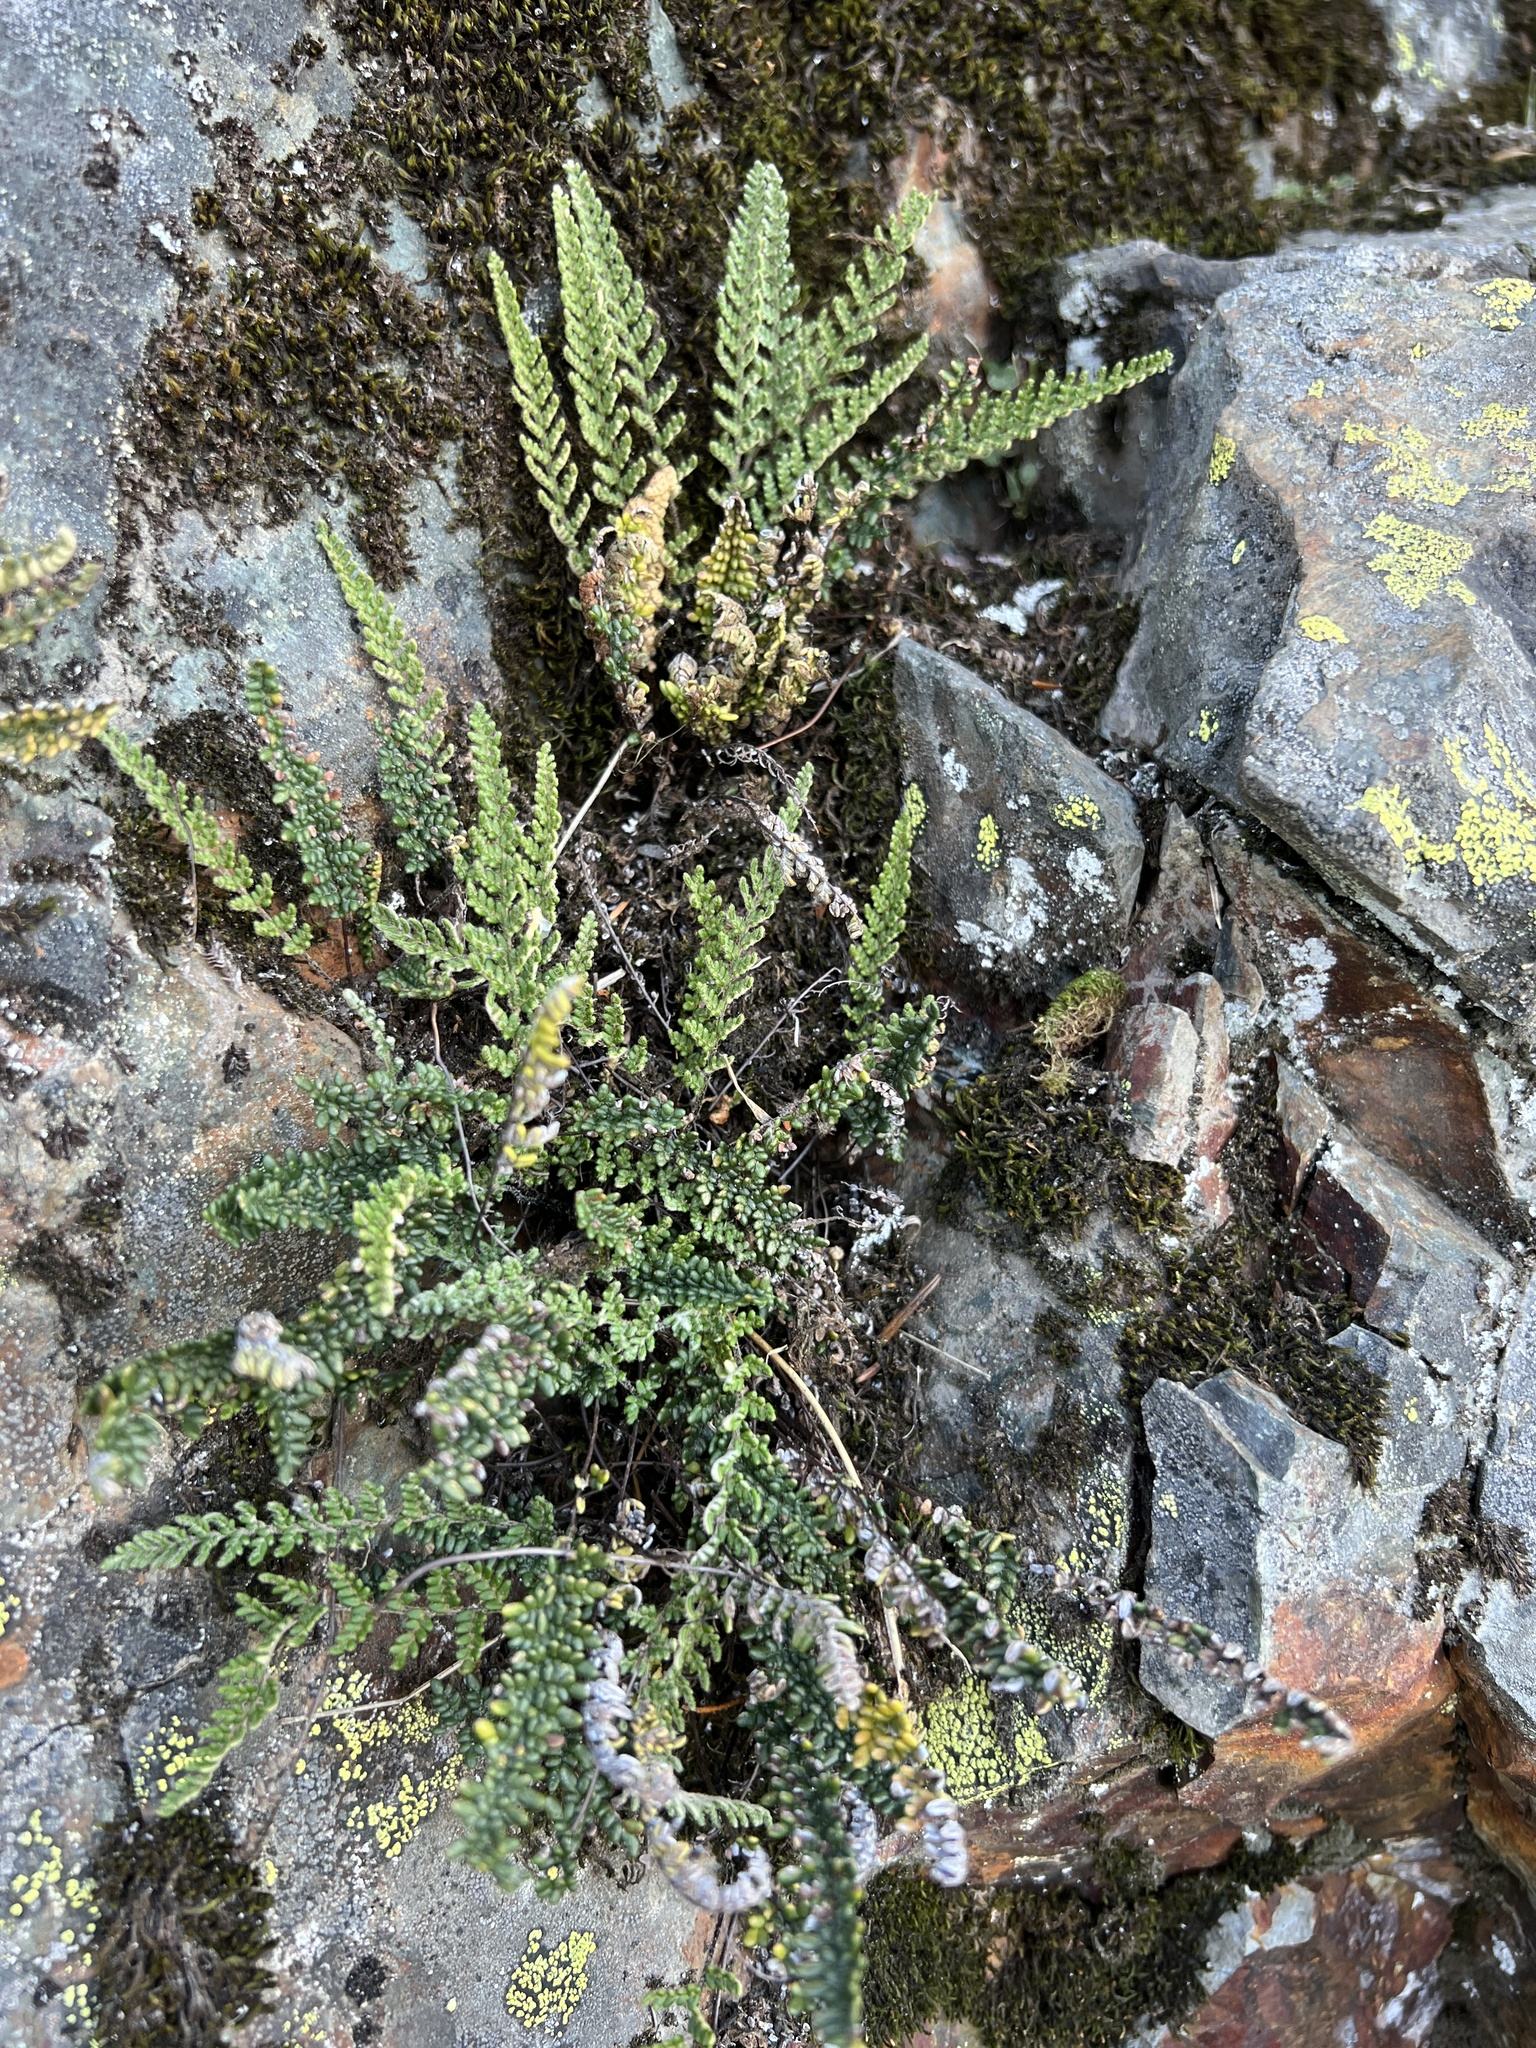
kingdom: Plantae
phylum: Tracheophyta
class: Polypodiopsida
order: Polypodiales
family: Pteridaceae
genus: Myriopteris
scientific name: Myriopteris gracillima
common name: Lace fern
